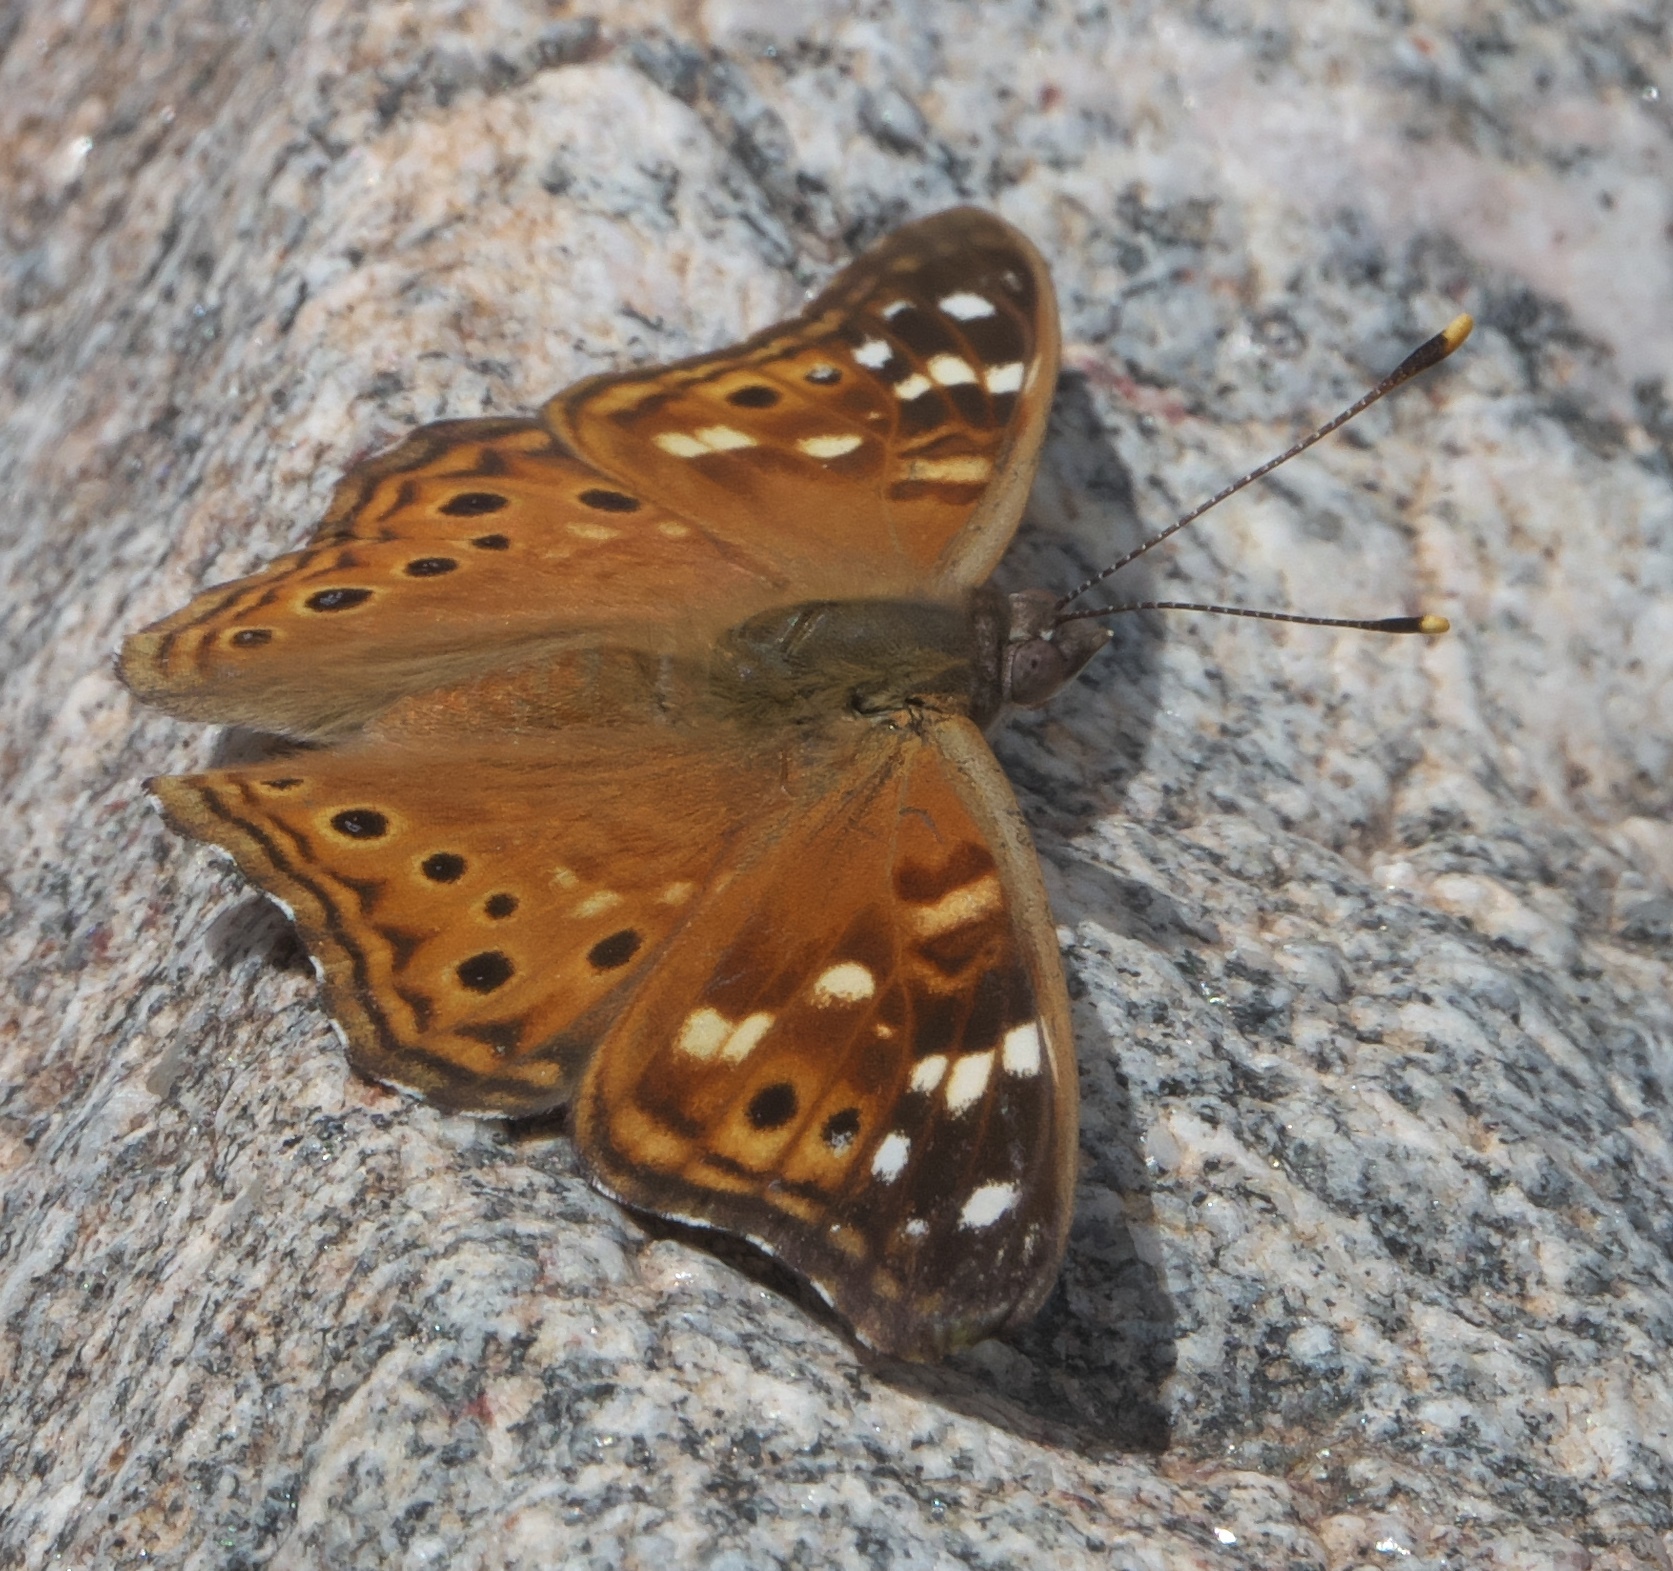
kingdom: Animalia
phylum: Arthropoda
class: Insecta
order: Lepidoptera
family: Nymphalidae
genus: Asterocampa
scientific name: Asterocampa leilia
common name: Empress leilia
